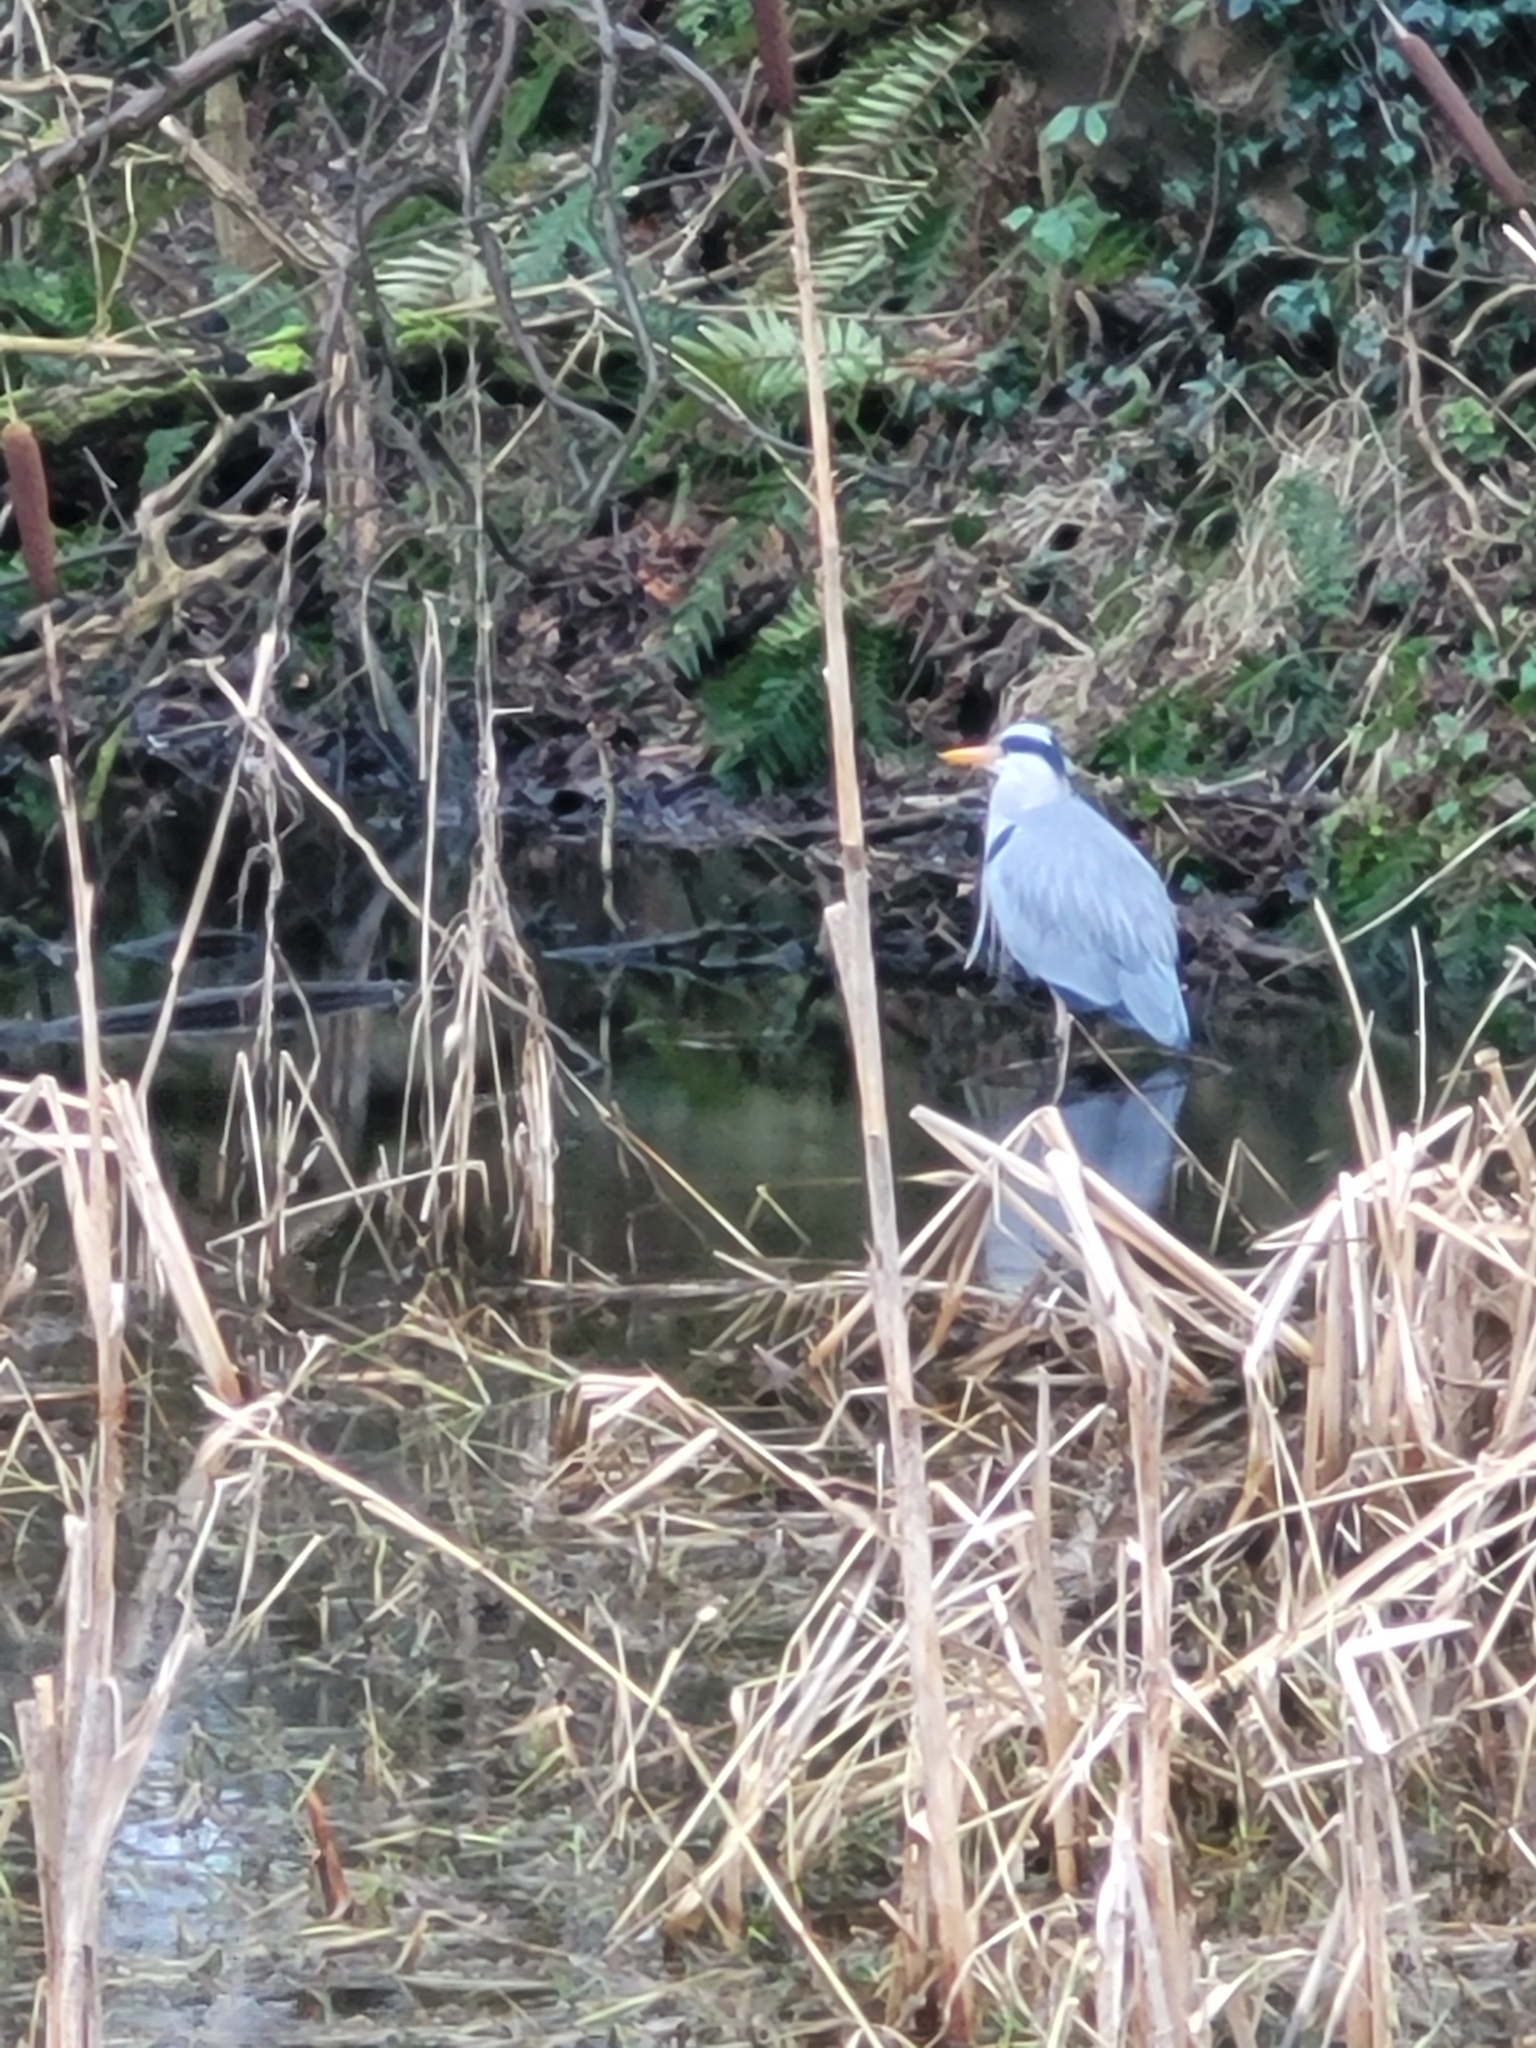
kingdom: Animalia
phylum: Chordata
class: Aves
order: Pelecaniformes
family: Ardeidae
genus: Ardea
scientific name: Ardea cinerea
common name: Grey heron
